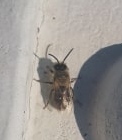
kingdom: Animalia
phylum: Arthropoda
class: Insecta
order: Hymenoptera
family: Colletidae
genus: Colletes
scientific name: Colletes cunicularius
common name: Early colletes
